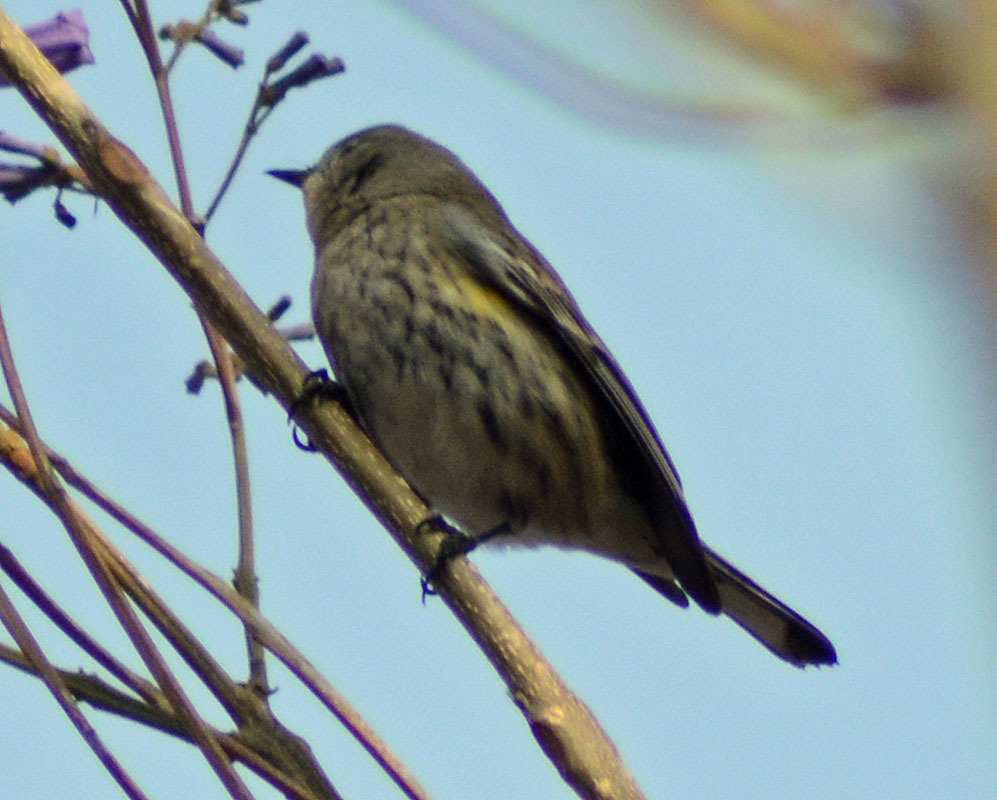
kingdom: Animalia
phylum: Chordata
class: Aves
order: Passeriformes
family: Parulidae
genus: Setophaga
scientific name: Setophaga coronata
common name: Myrtle warbler
